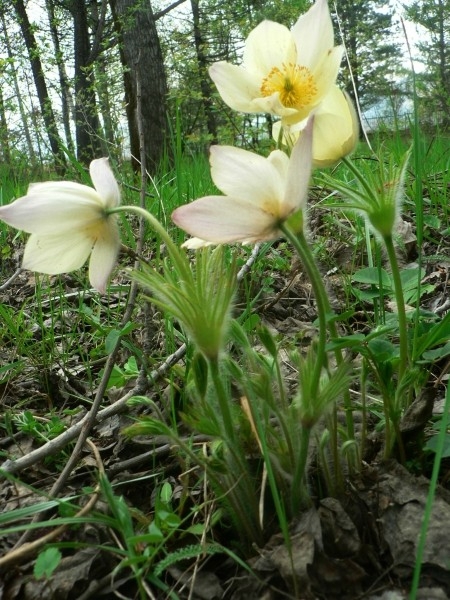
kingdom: Plantae
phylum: Tracheophyta
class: Magnoliopsida
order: Ranunculales
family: Ranunculaceae
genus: Pulsatilla
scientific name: Pulsatilla patens
